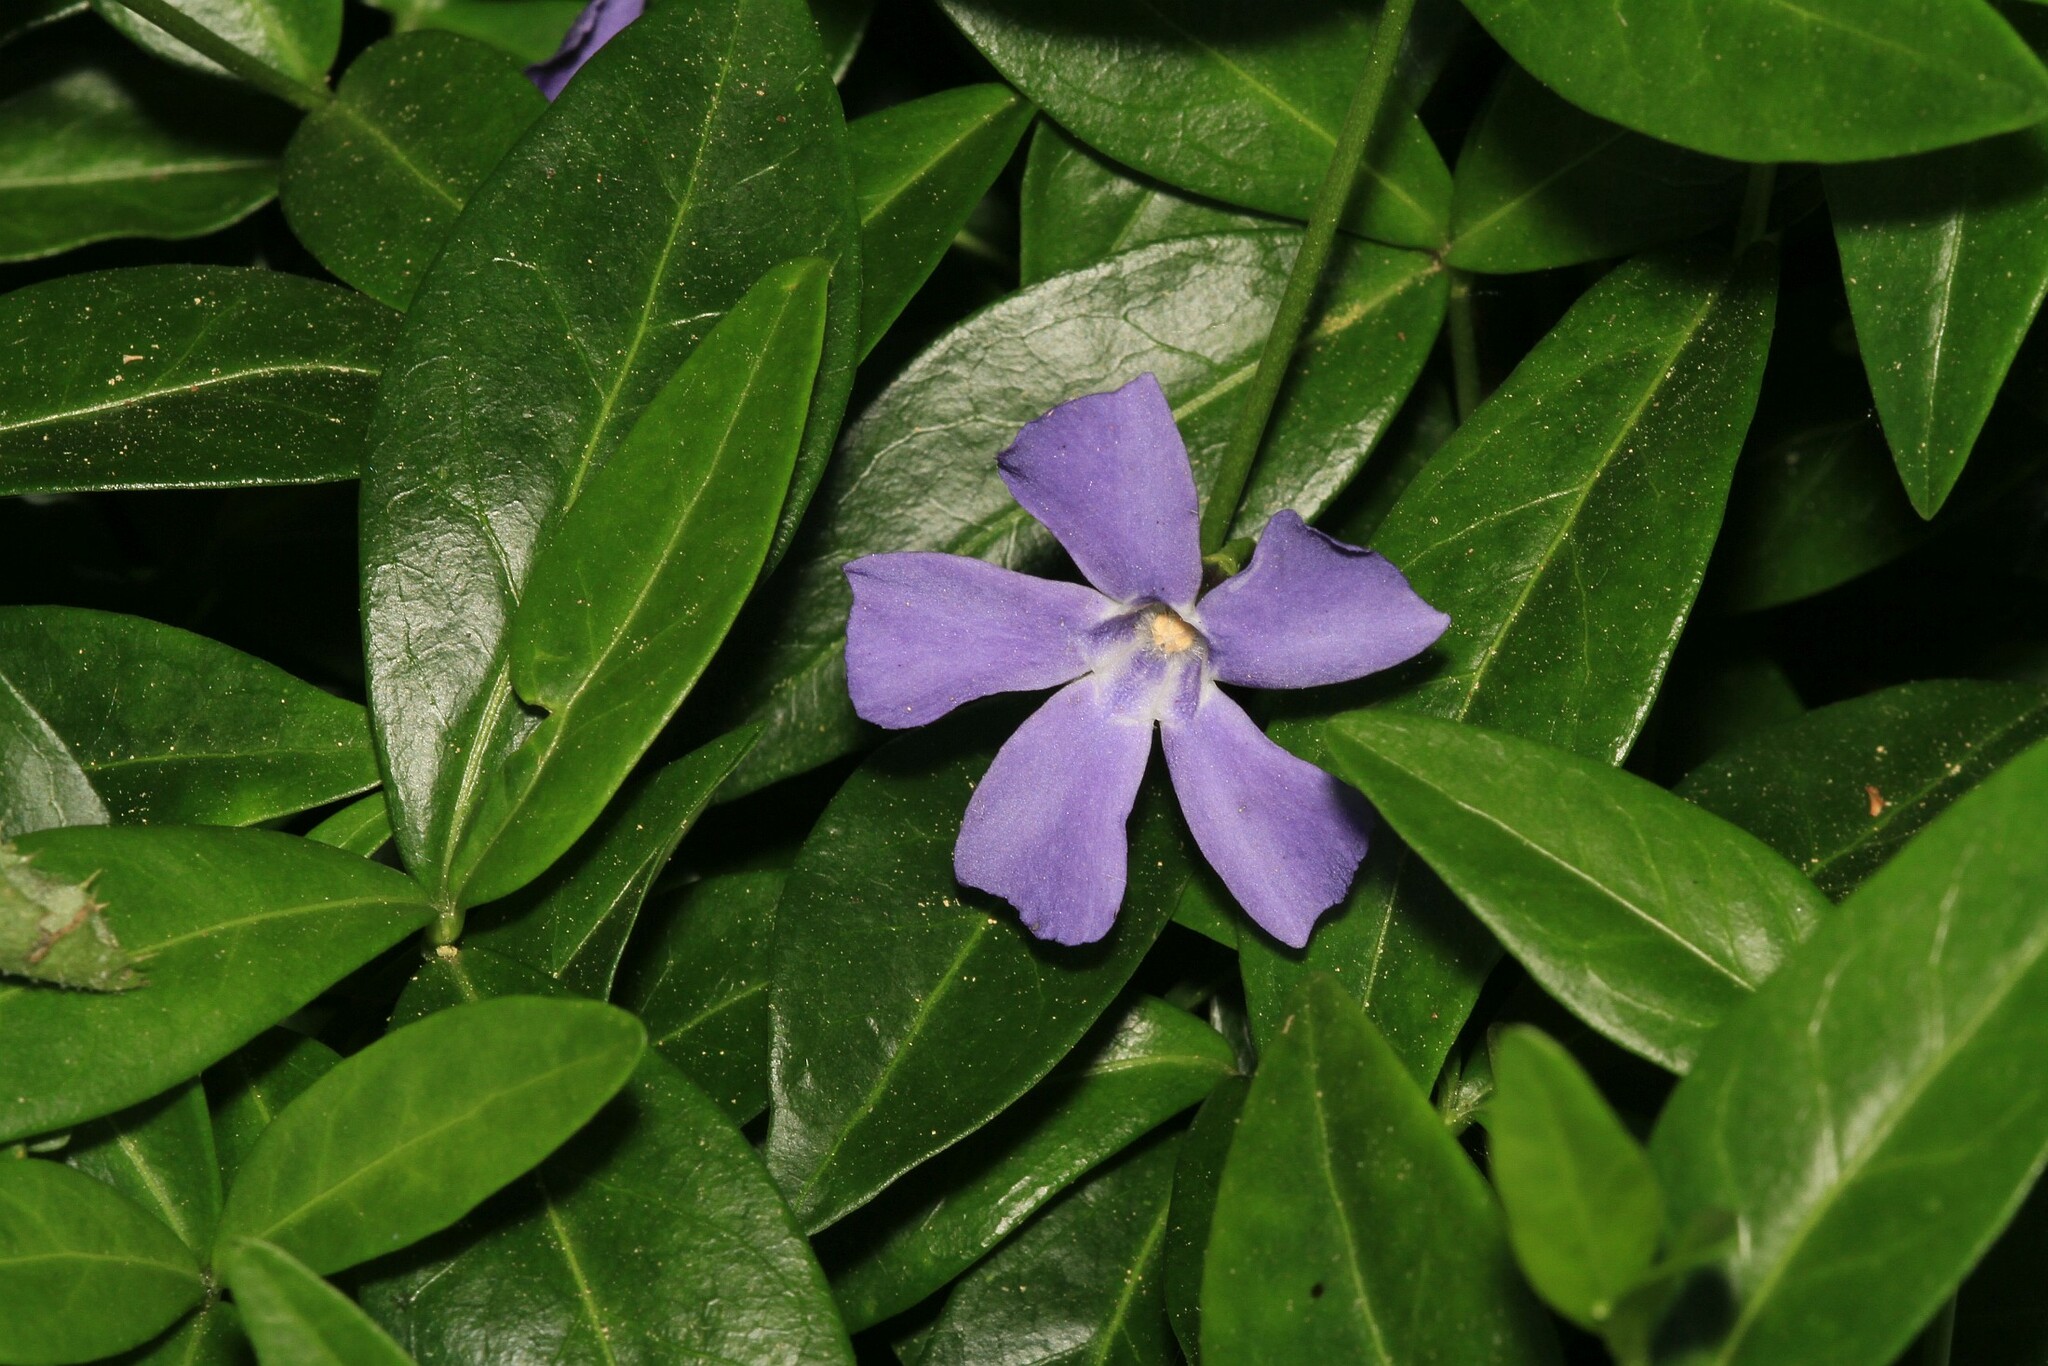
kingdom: Plantae
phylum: Tracheophyta
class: Magnoliopsida
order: Gentianales
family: Apocynaceae
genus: Vinca
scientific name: Vinca minor
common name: Lesser periwinkle
